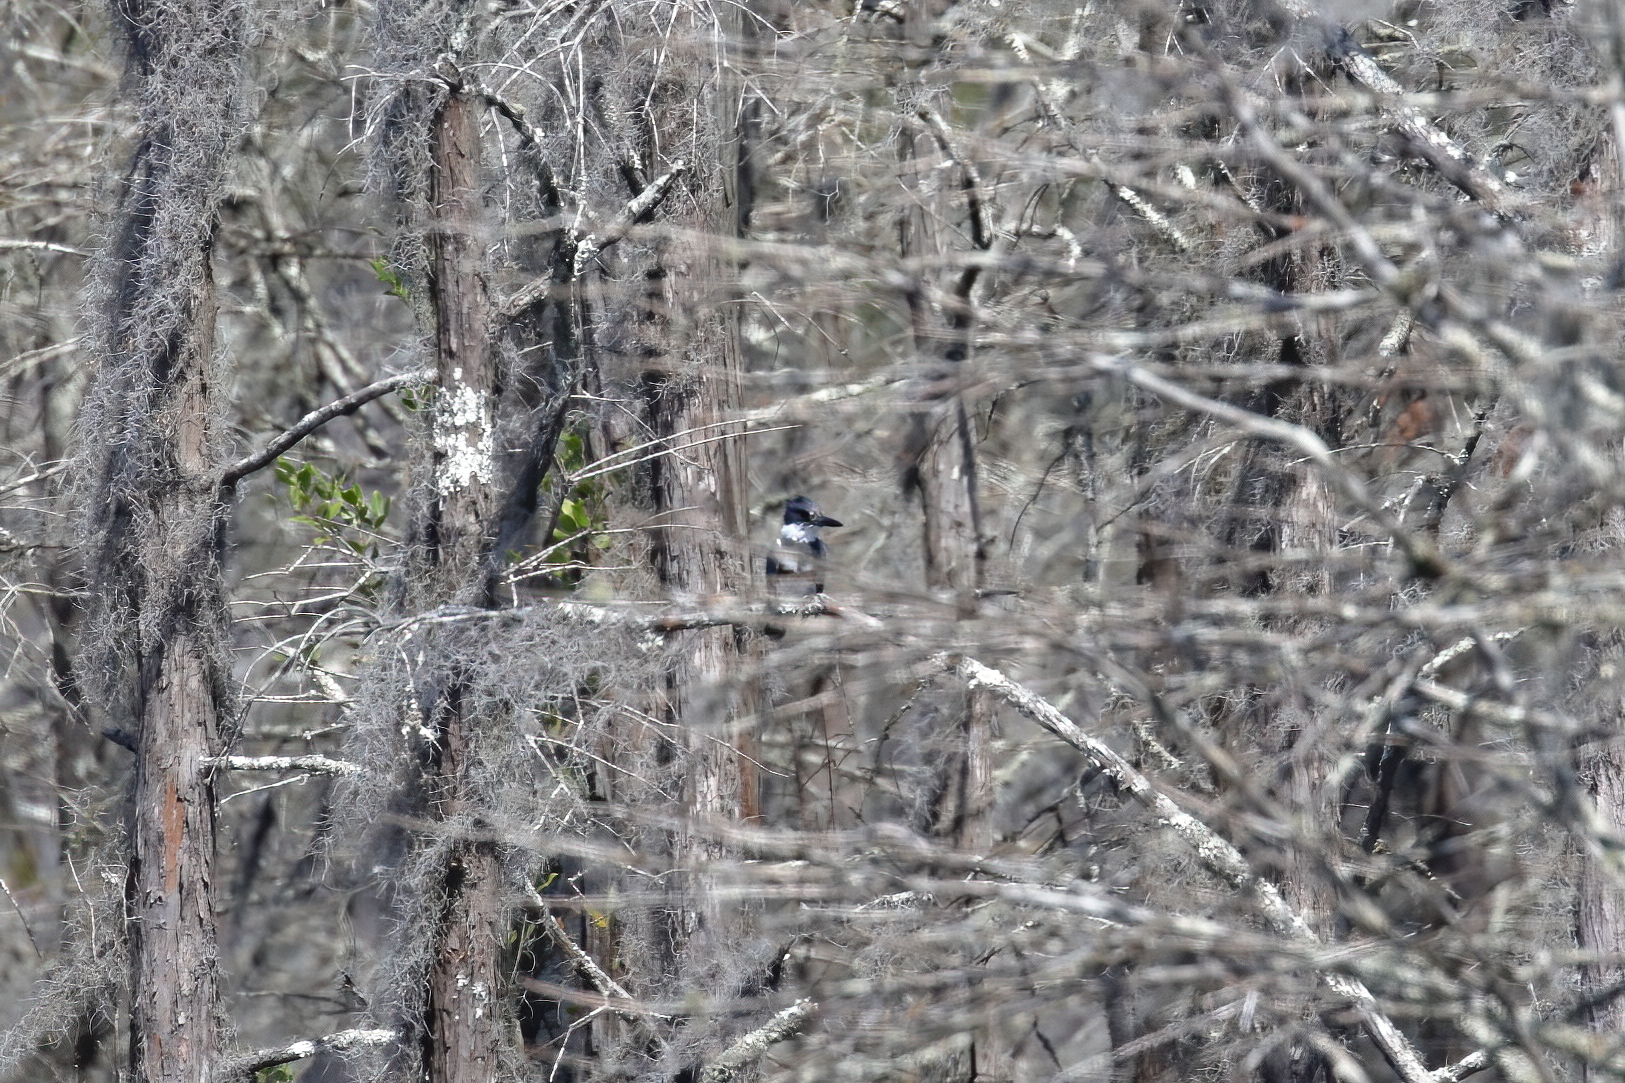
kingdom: Animalia
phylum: Chordata
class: Aves
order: Coraciiformes
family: Alcedinidae
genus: Megaceryle
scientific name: Megaceryle alcyon
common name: Belted kingfisher
